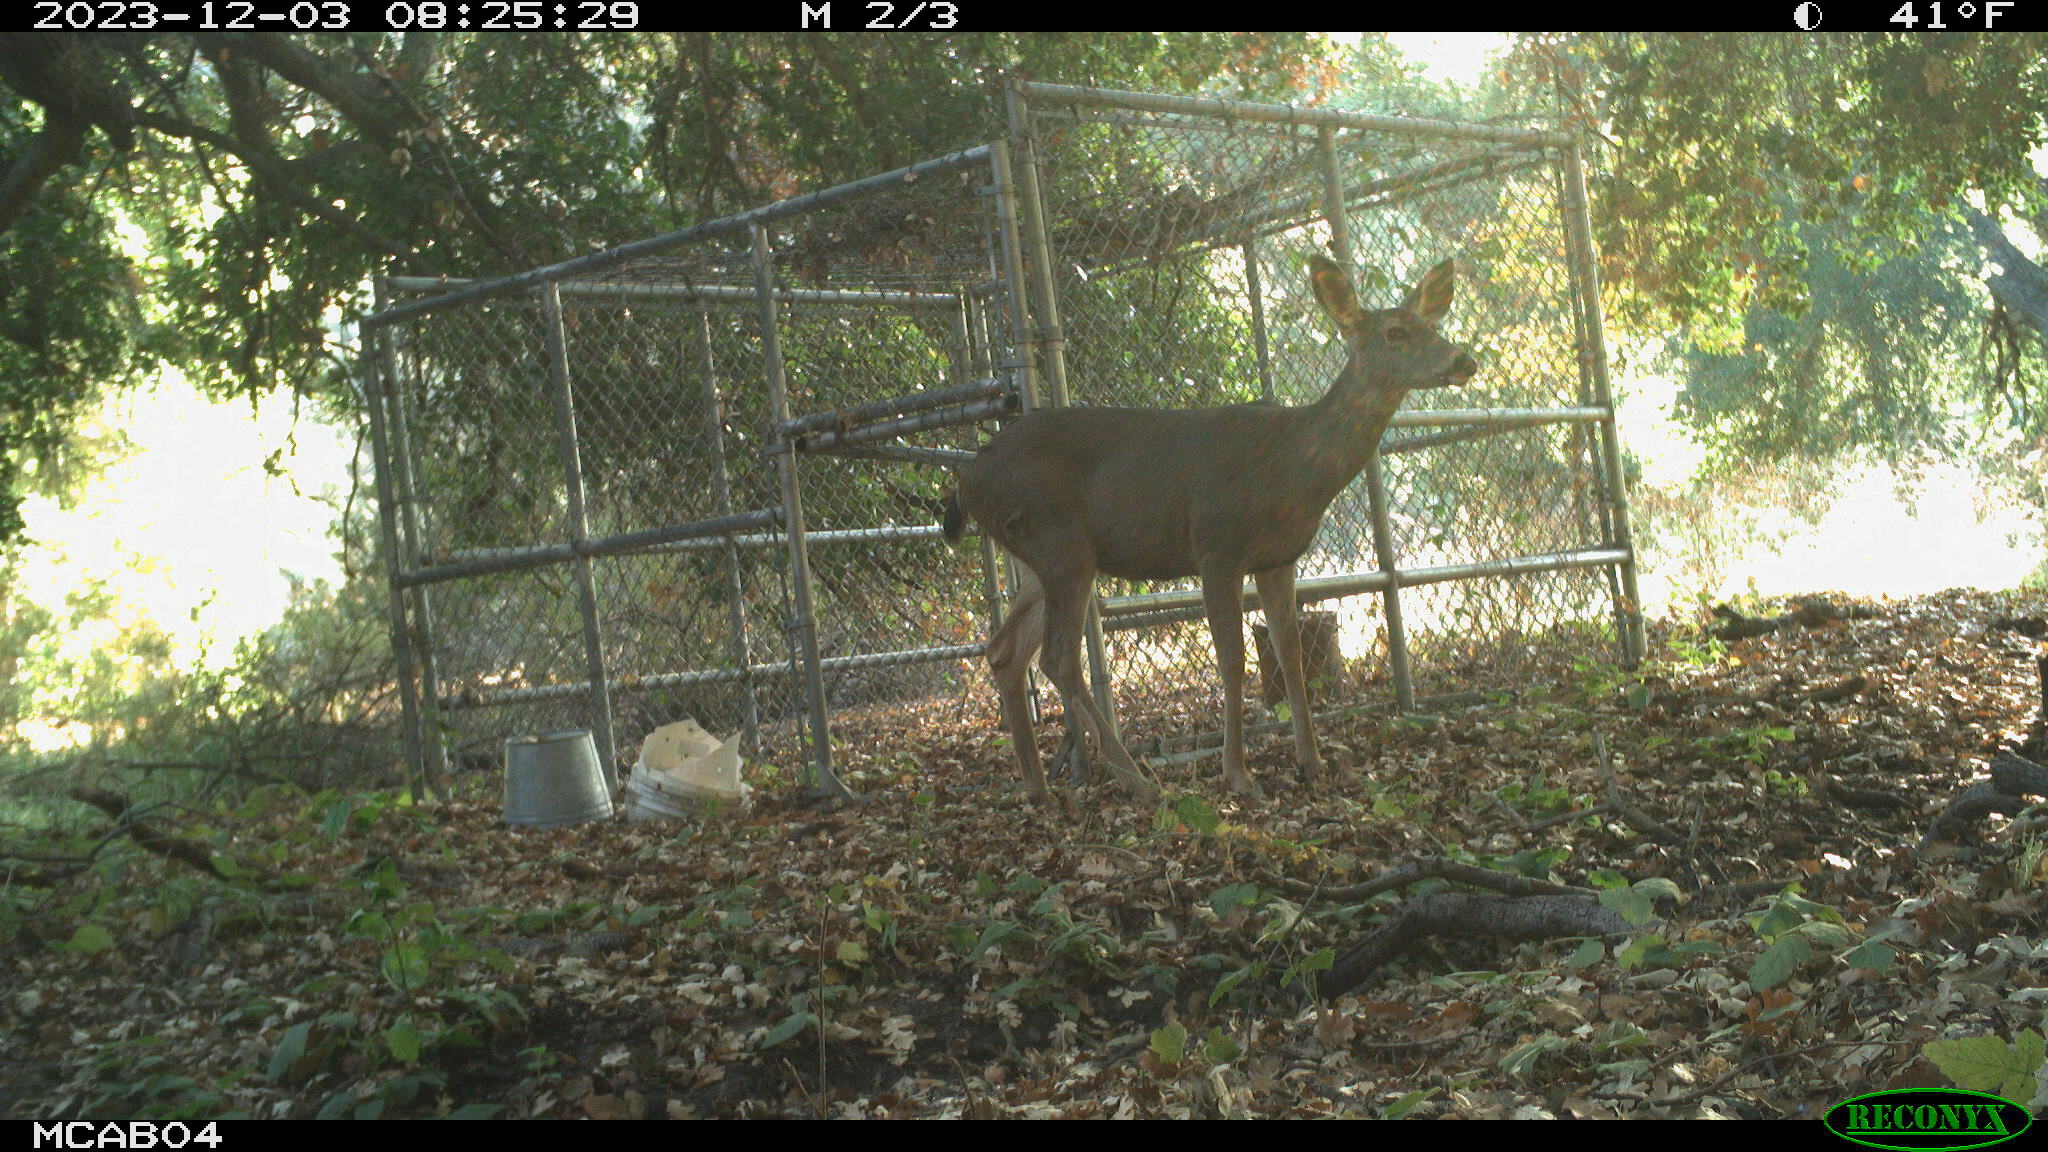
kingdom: Animalia
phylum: Chordata
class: Mammalia
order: Artiodactyla
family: Cervidae
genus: Odocoileus
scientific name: Odocoileus hemionus
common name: Mule deer
